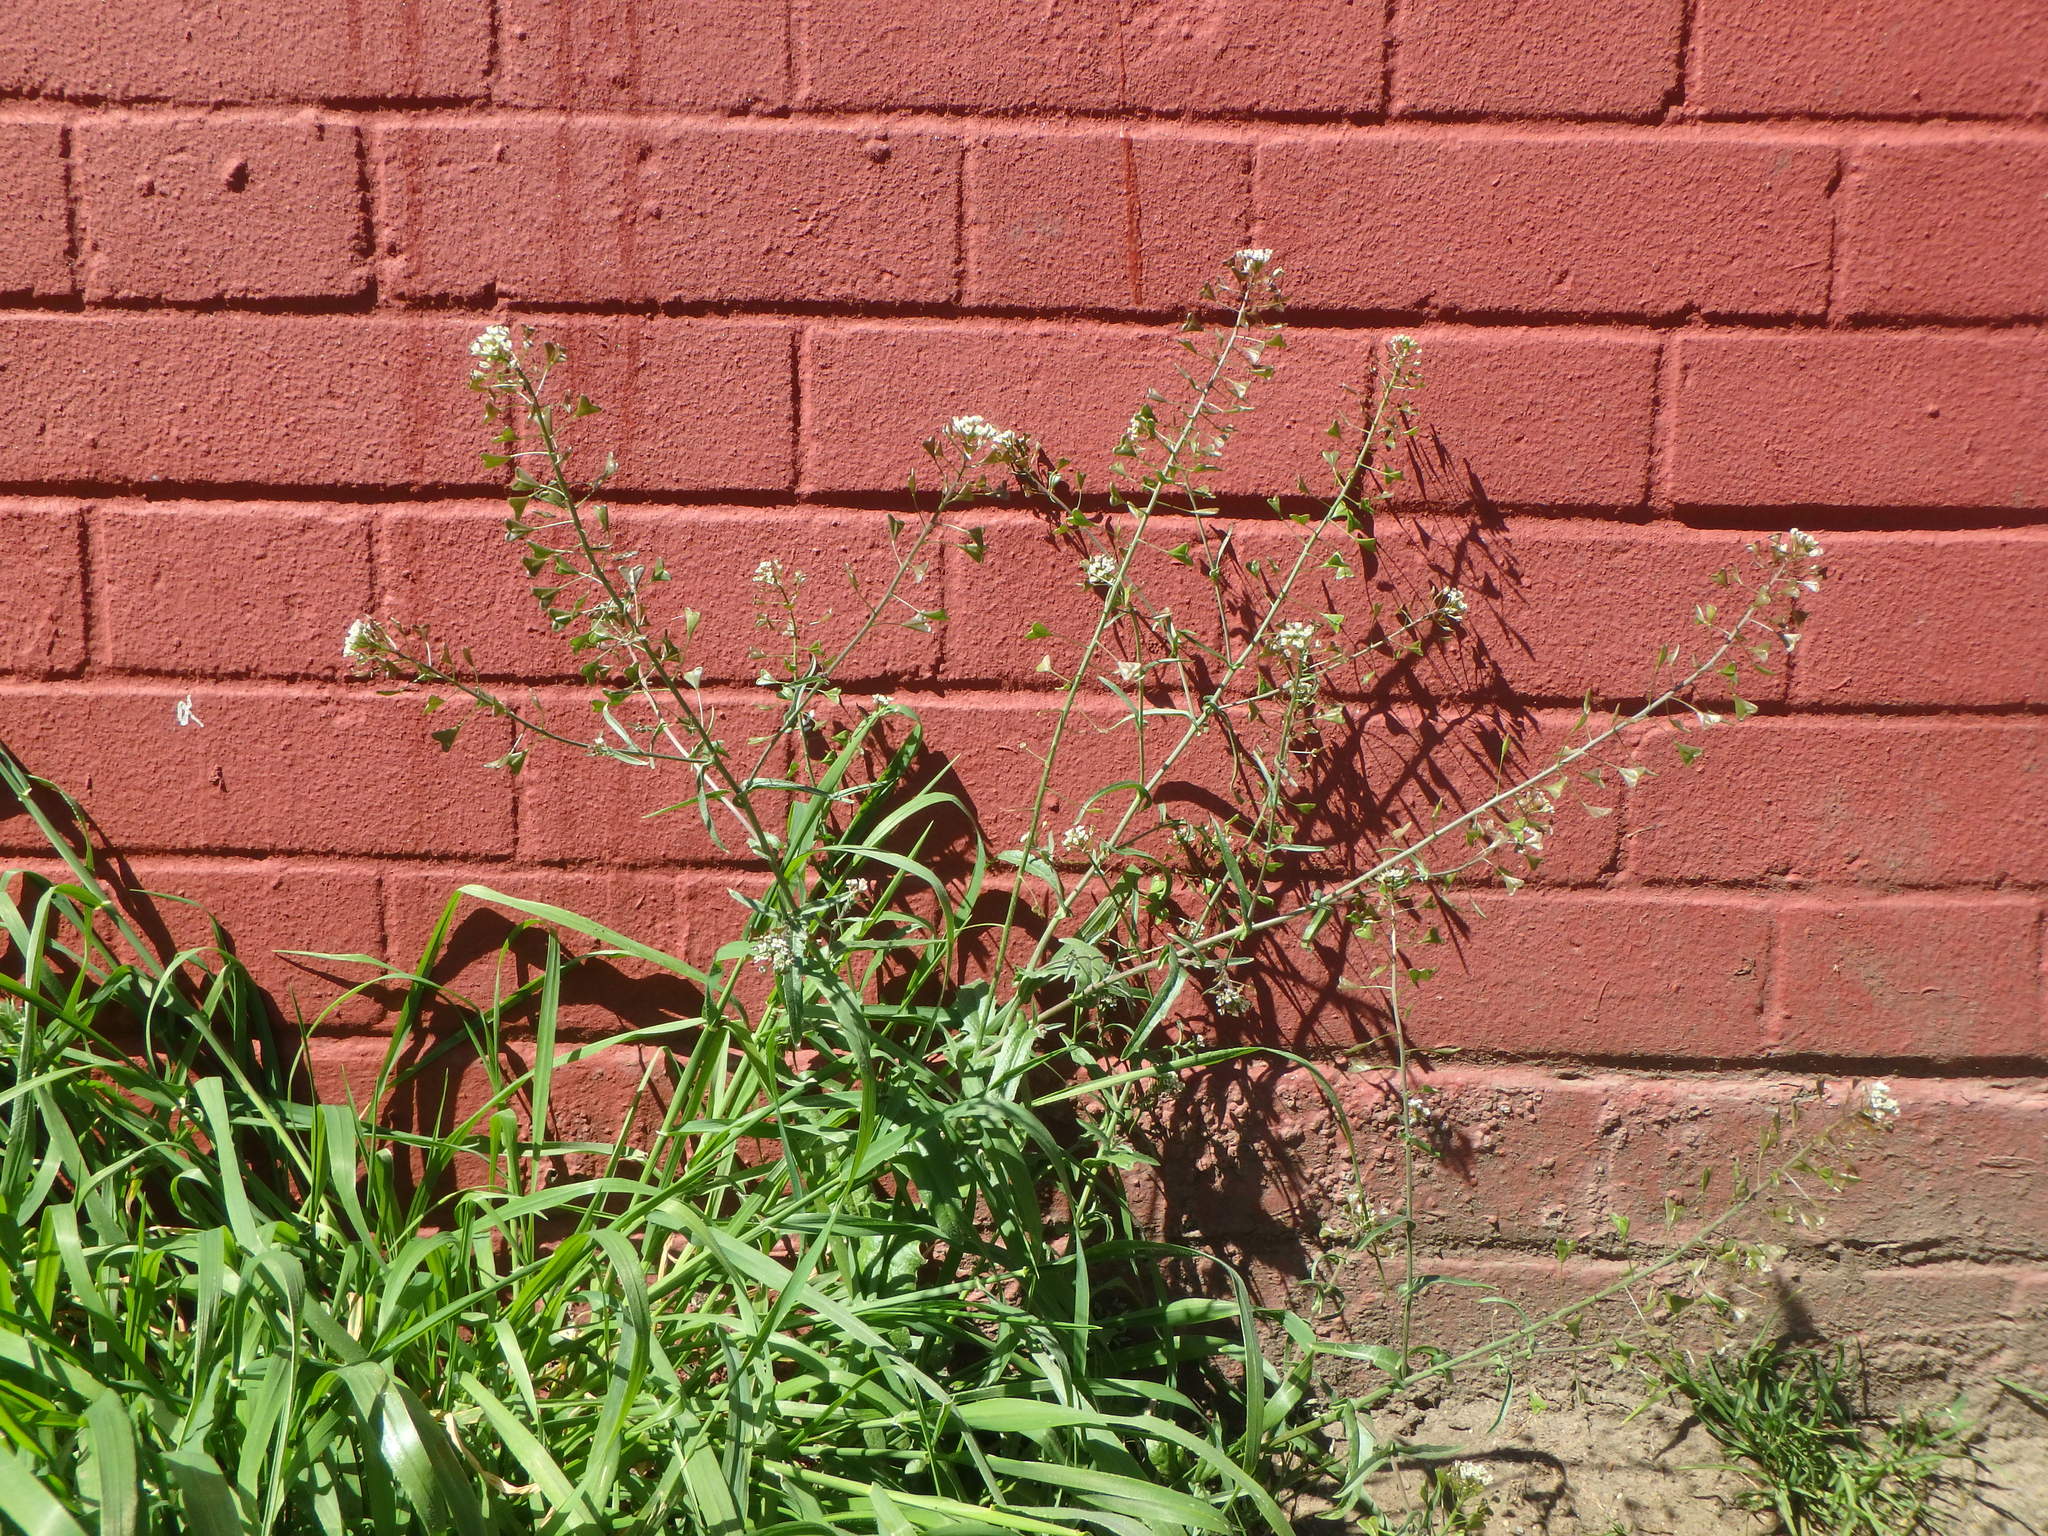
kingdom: Plantae
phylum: Tracheophyta
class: Magnoliopsida
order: Brassicales
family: Brassicaceae
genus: Capsella
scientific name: Capsella bursa-pastoris
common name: Shepherd's purse
